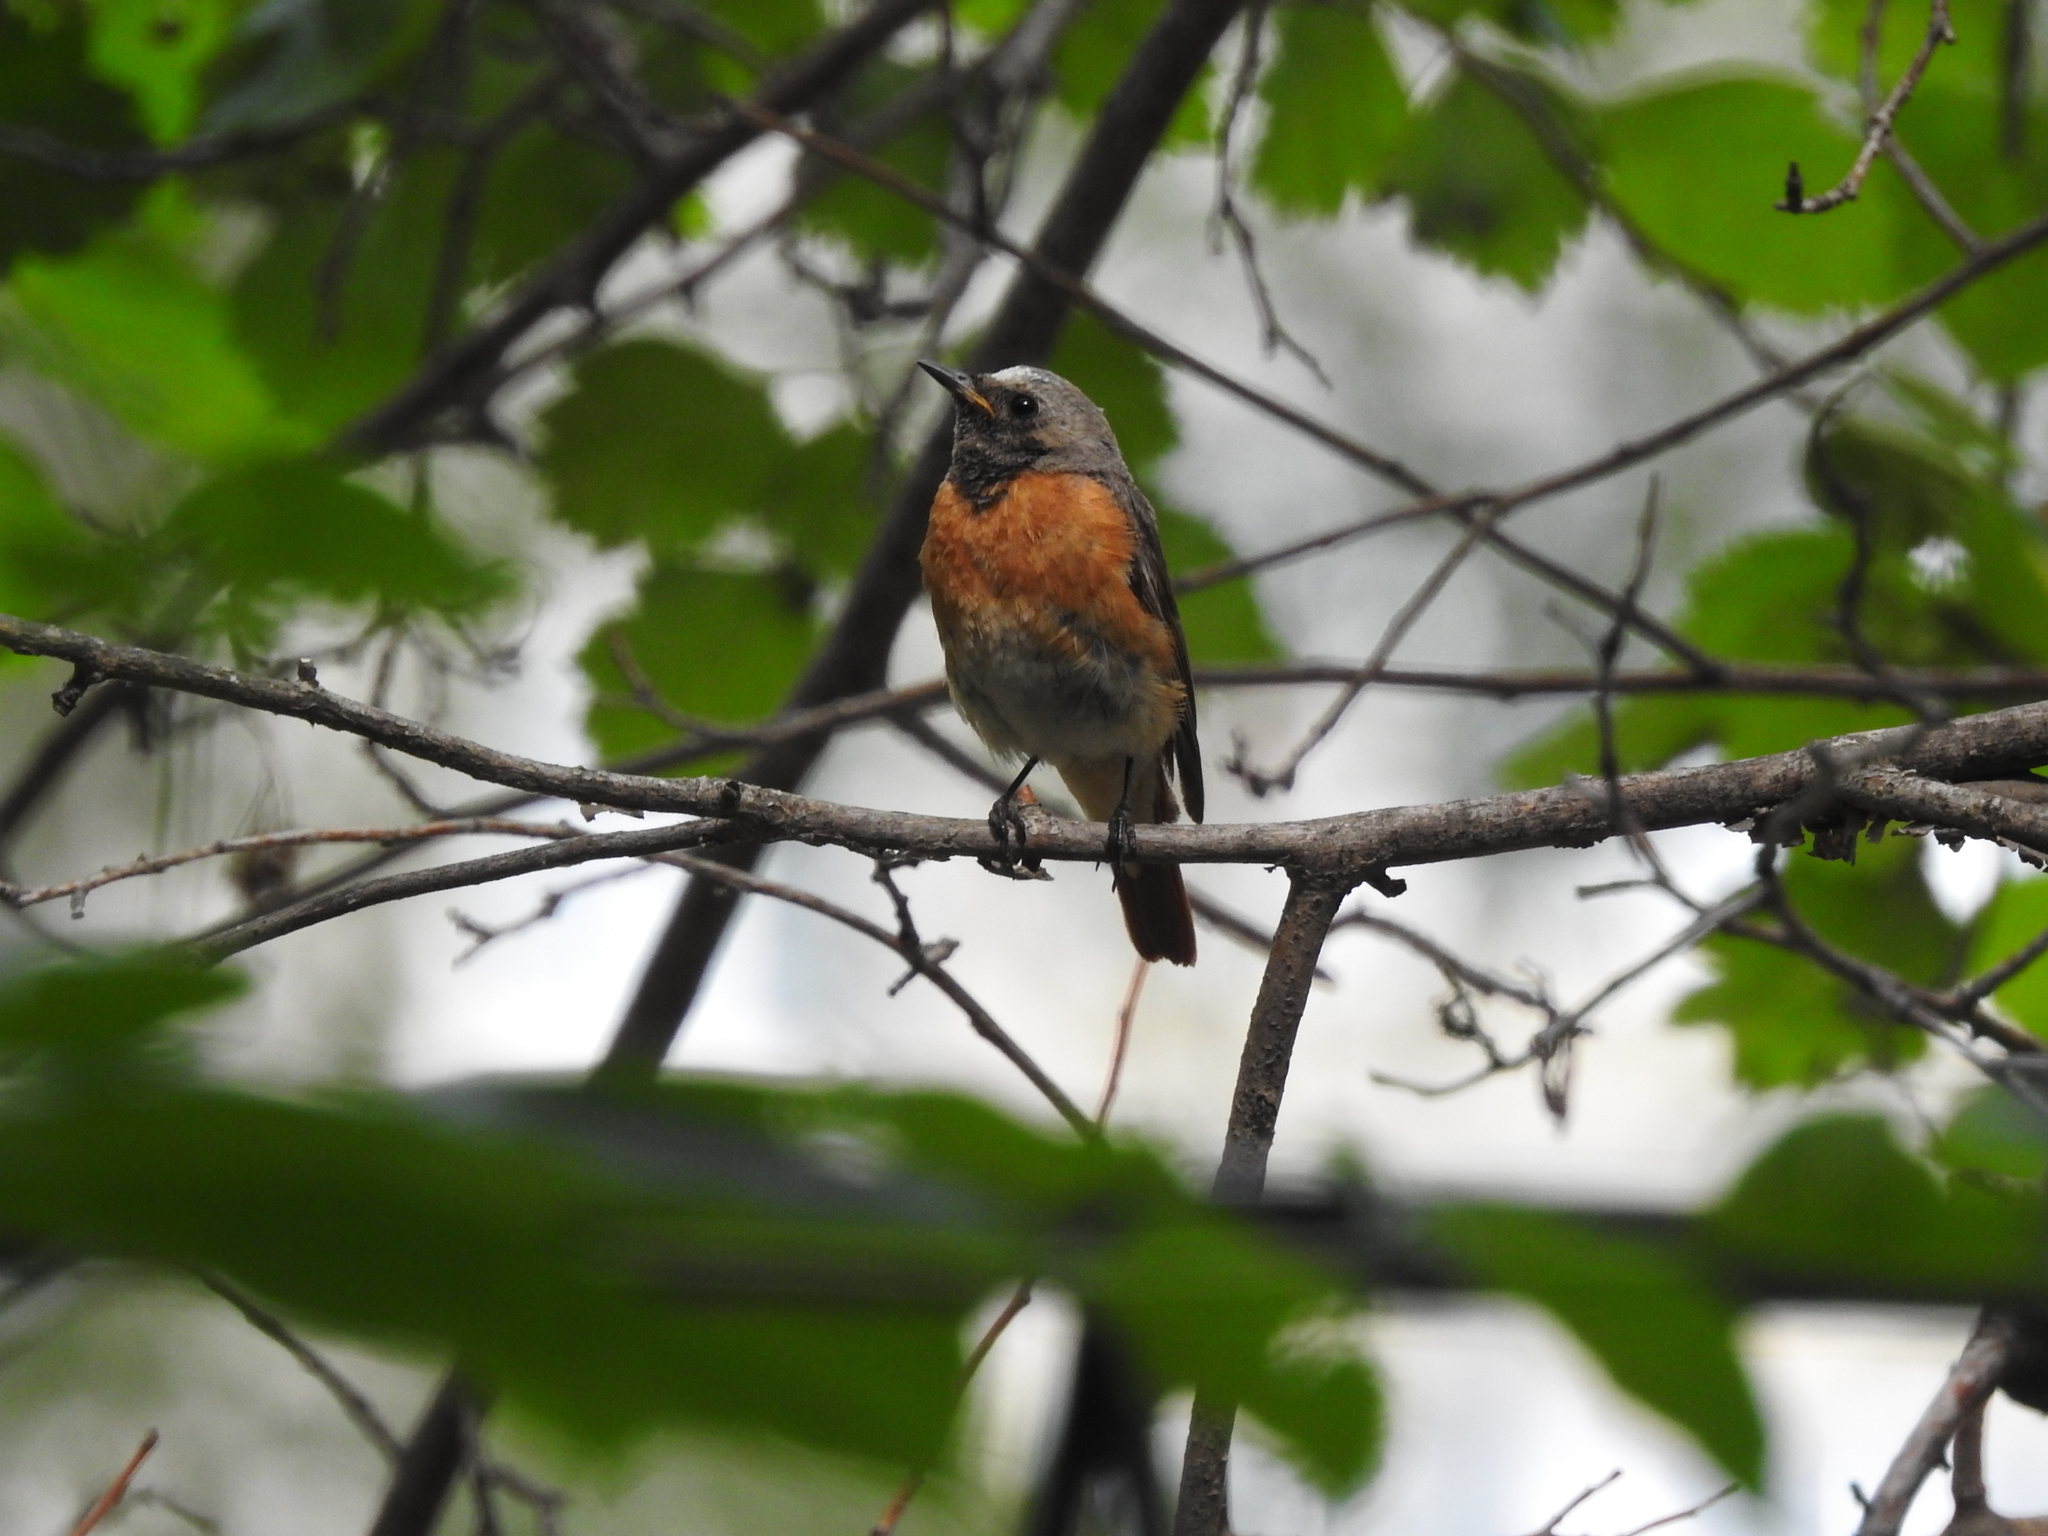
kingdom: Animalia
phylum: Chordata
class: Aves
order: Passeriformes
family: Muscicapidae
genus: Phoenicurus
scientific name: Phoenicurus phoenicurus
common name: Common redstart
